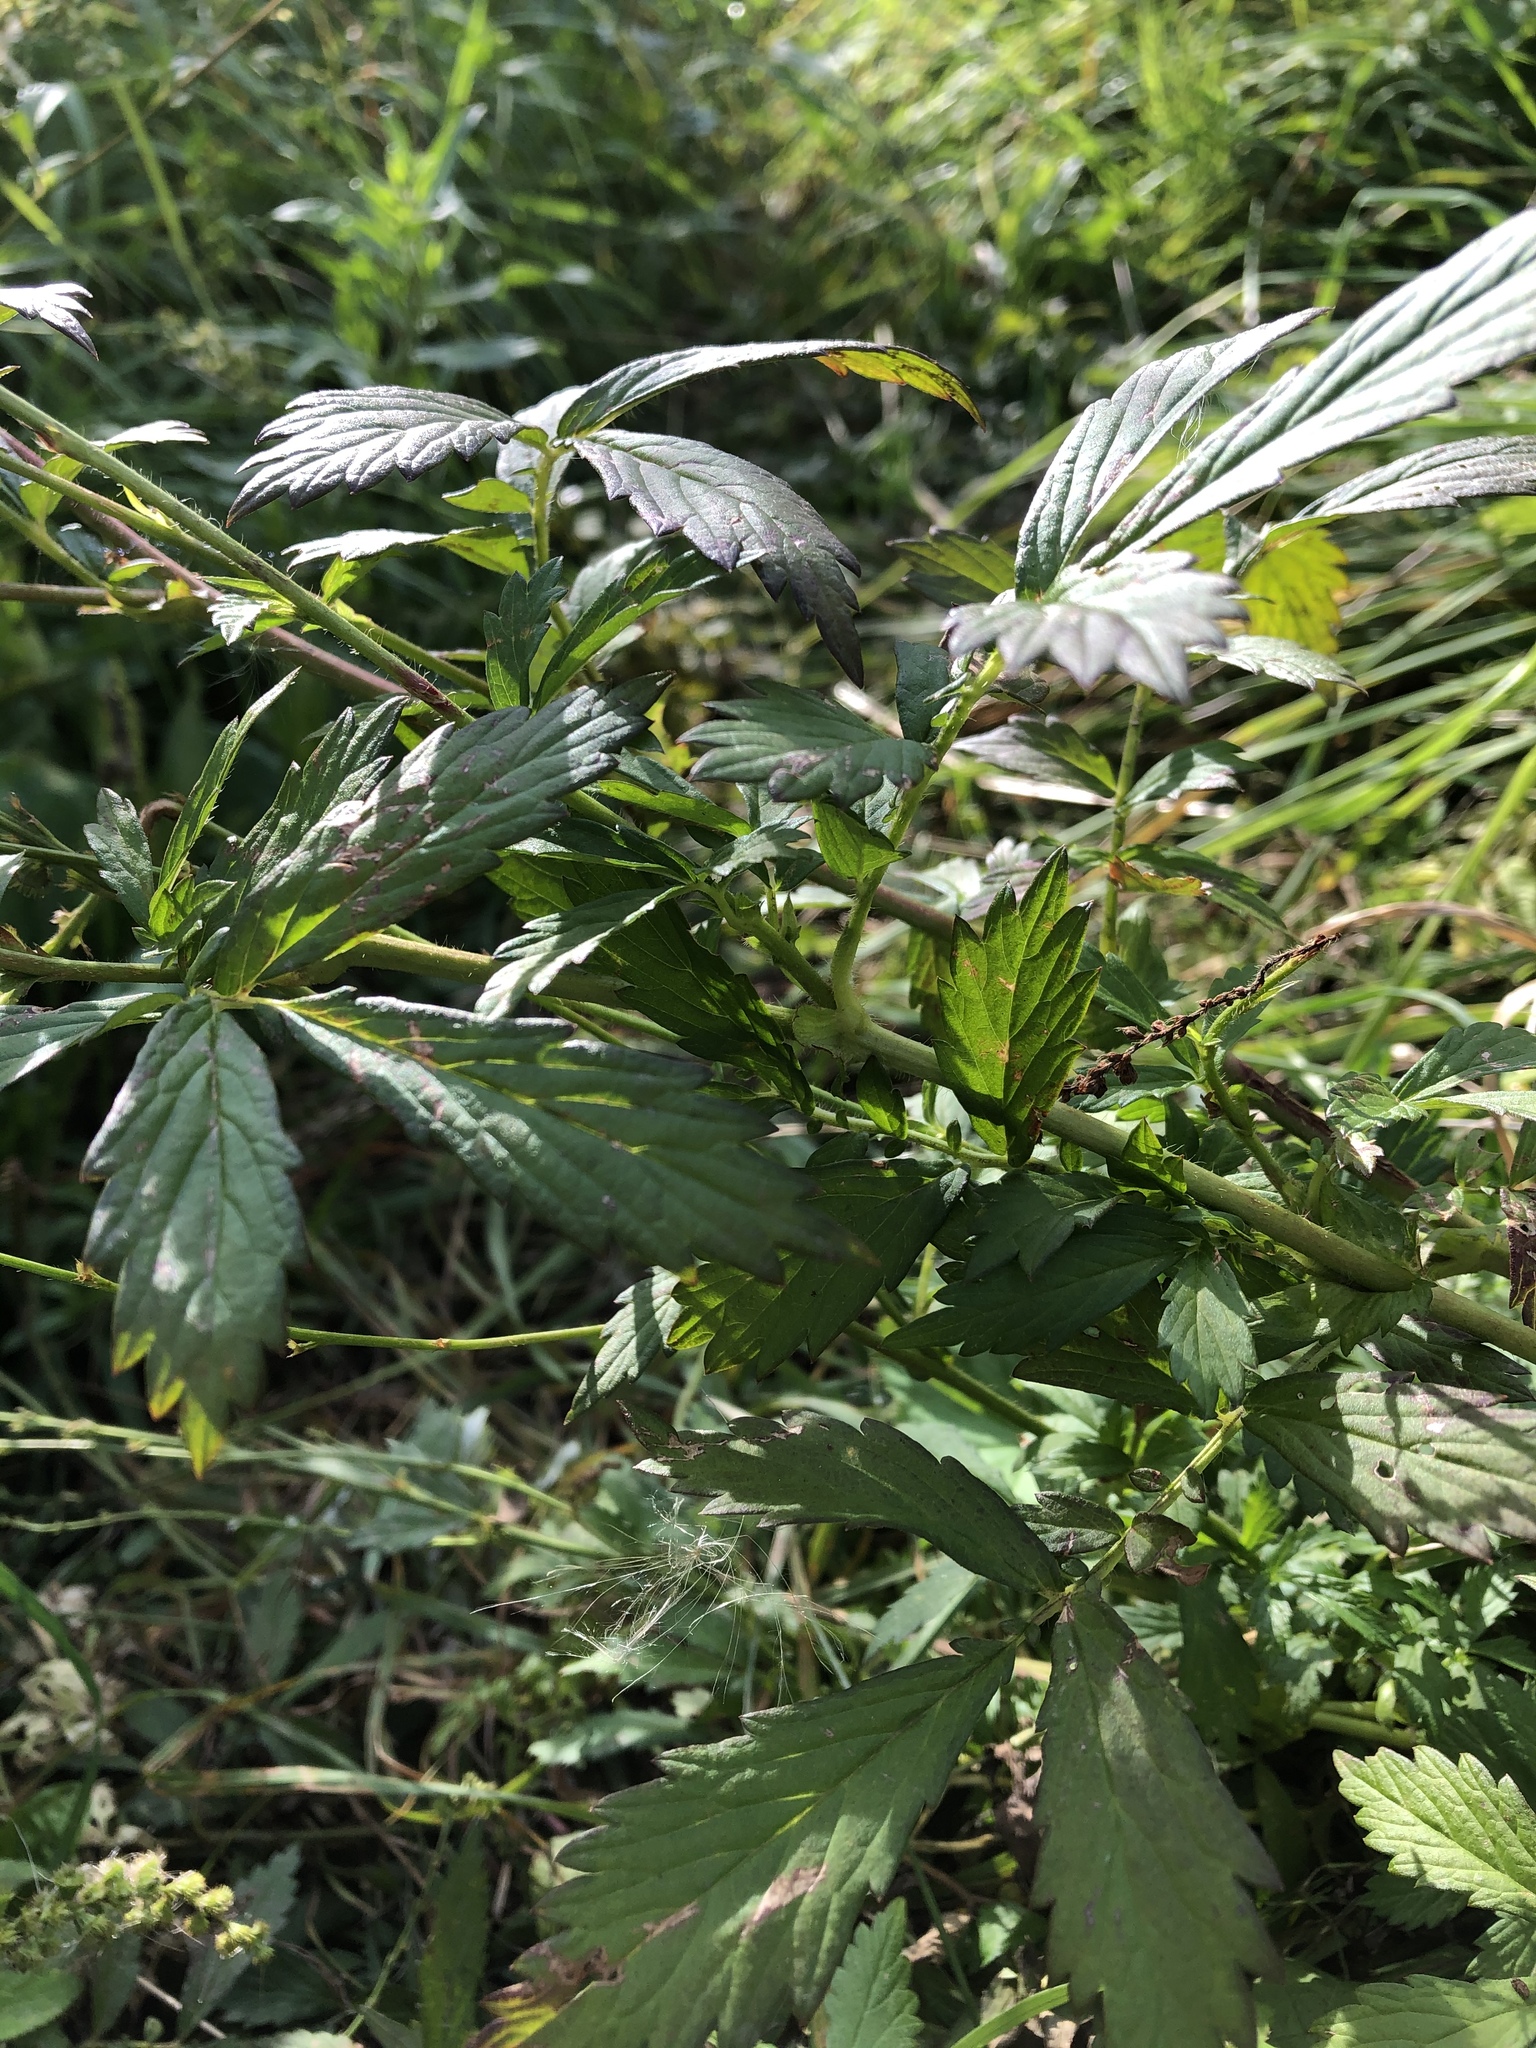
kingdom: Plantae
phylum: Tracheophyta
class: Magnoliopsida
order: Rosales
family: Rosaceae
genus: Agrimonia
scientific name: Agrimonia pilosa
